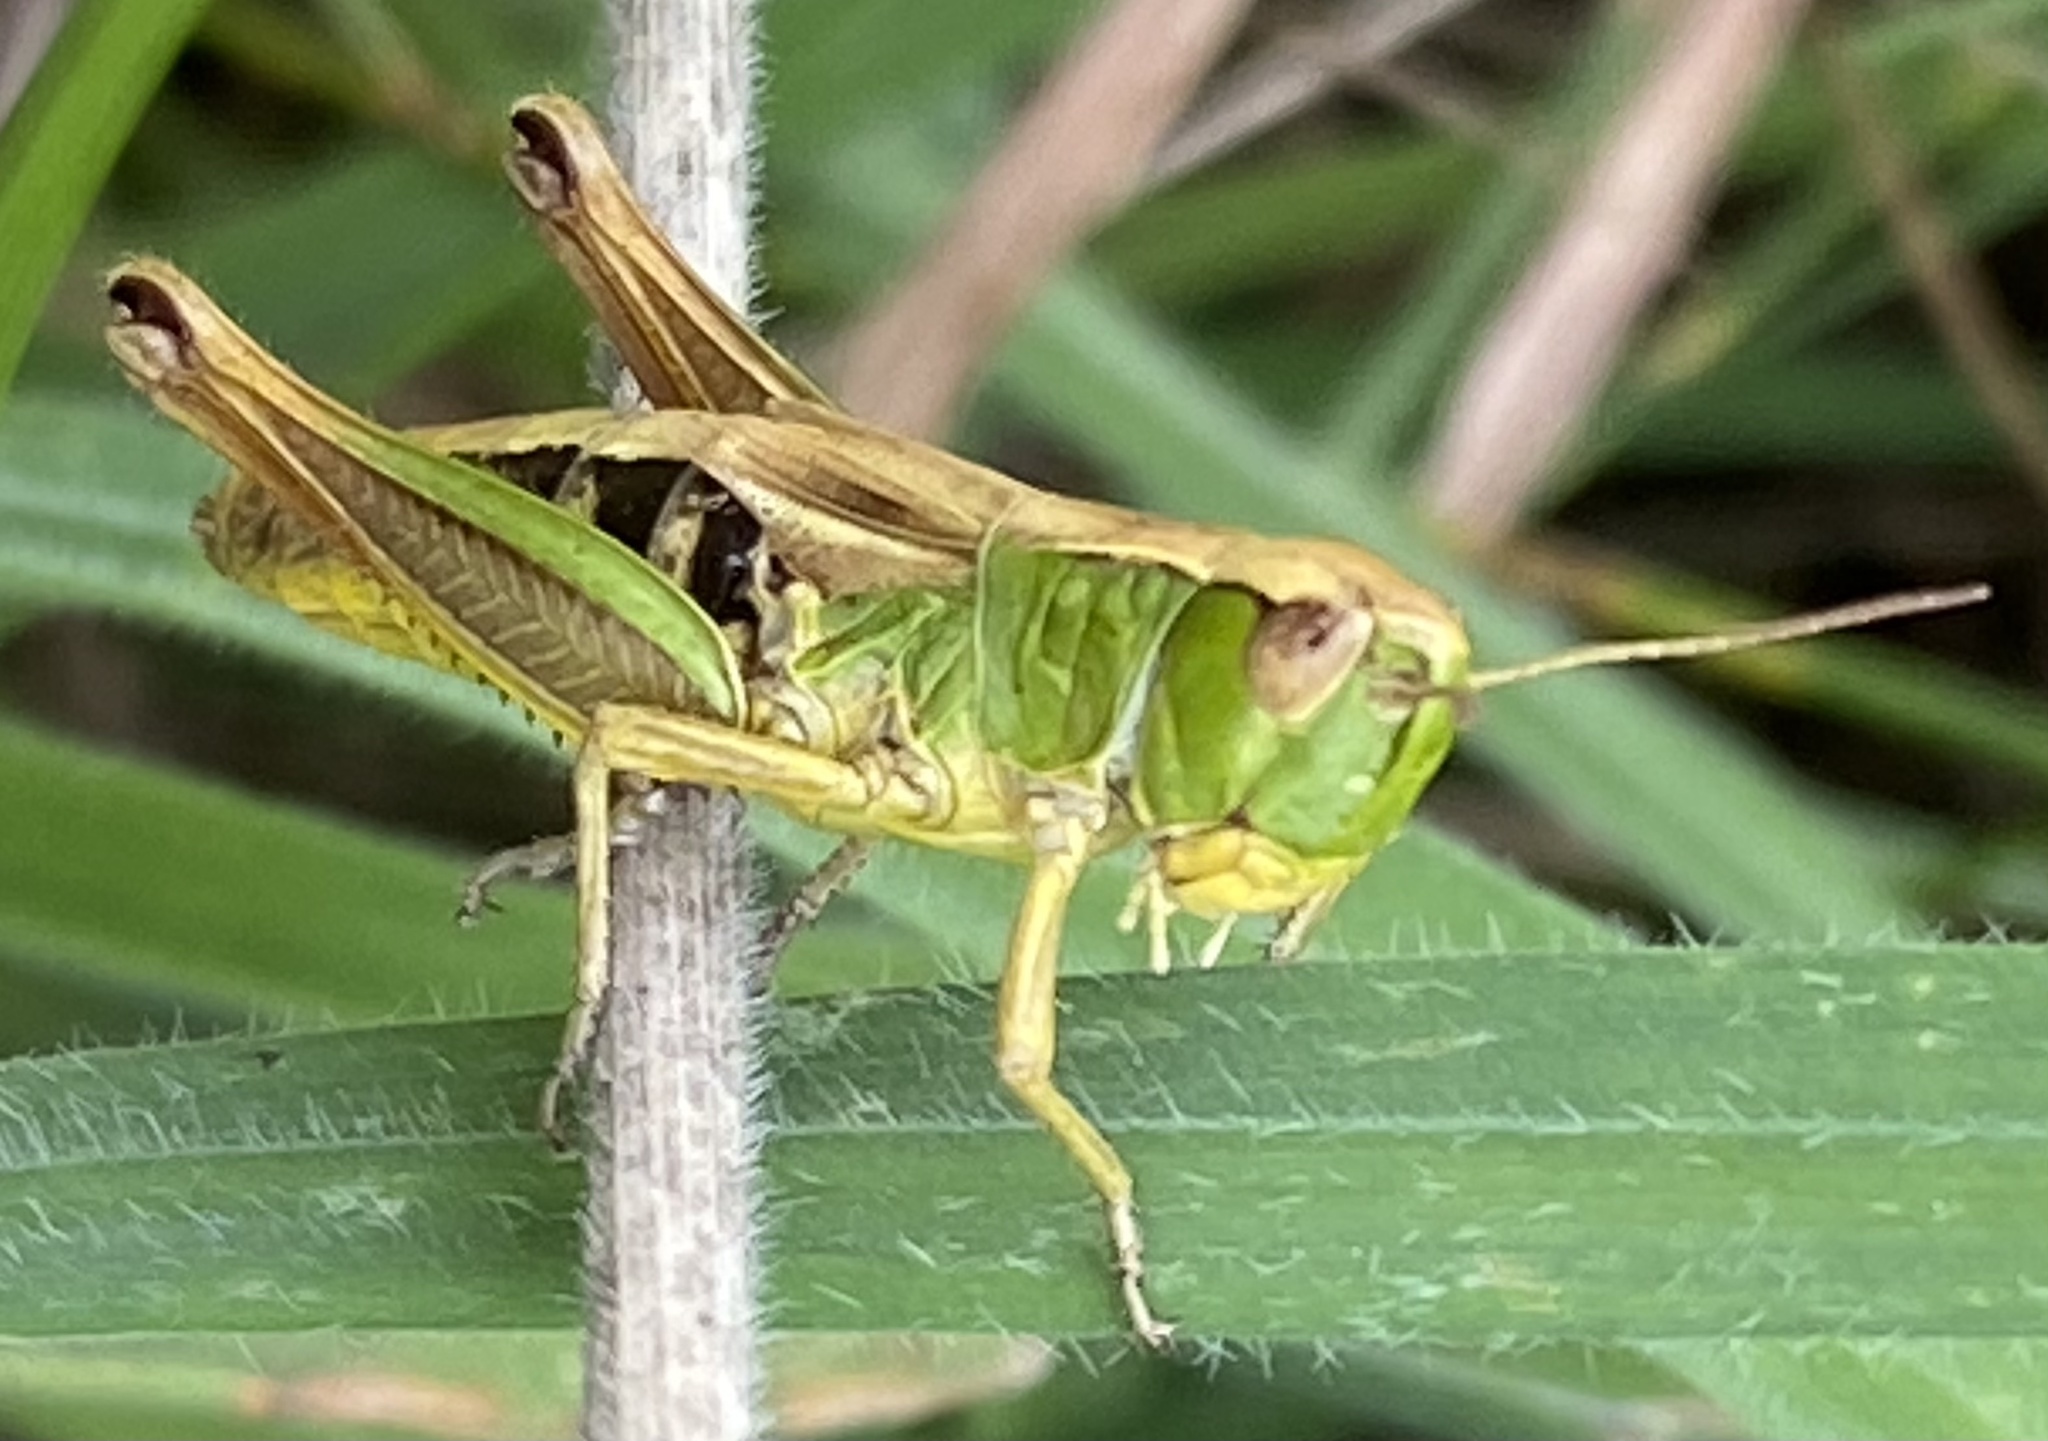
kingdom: Animalia
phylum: Arthropoda
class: Insecta
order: Orthoptera
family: Acrididae
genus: Pseudochorthippus
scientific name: Pseudochorthippus parallelus
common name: Meadow grasshopper
